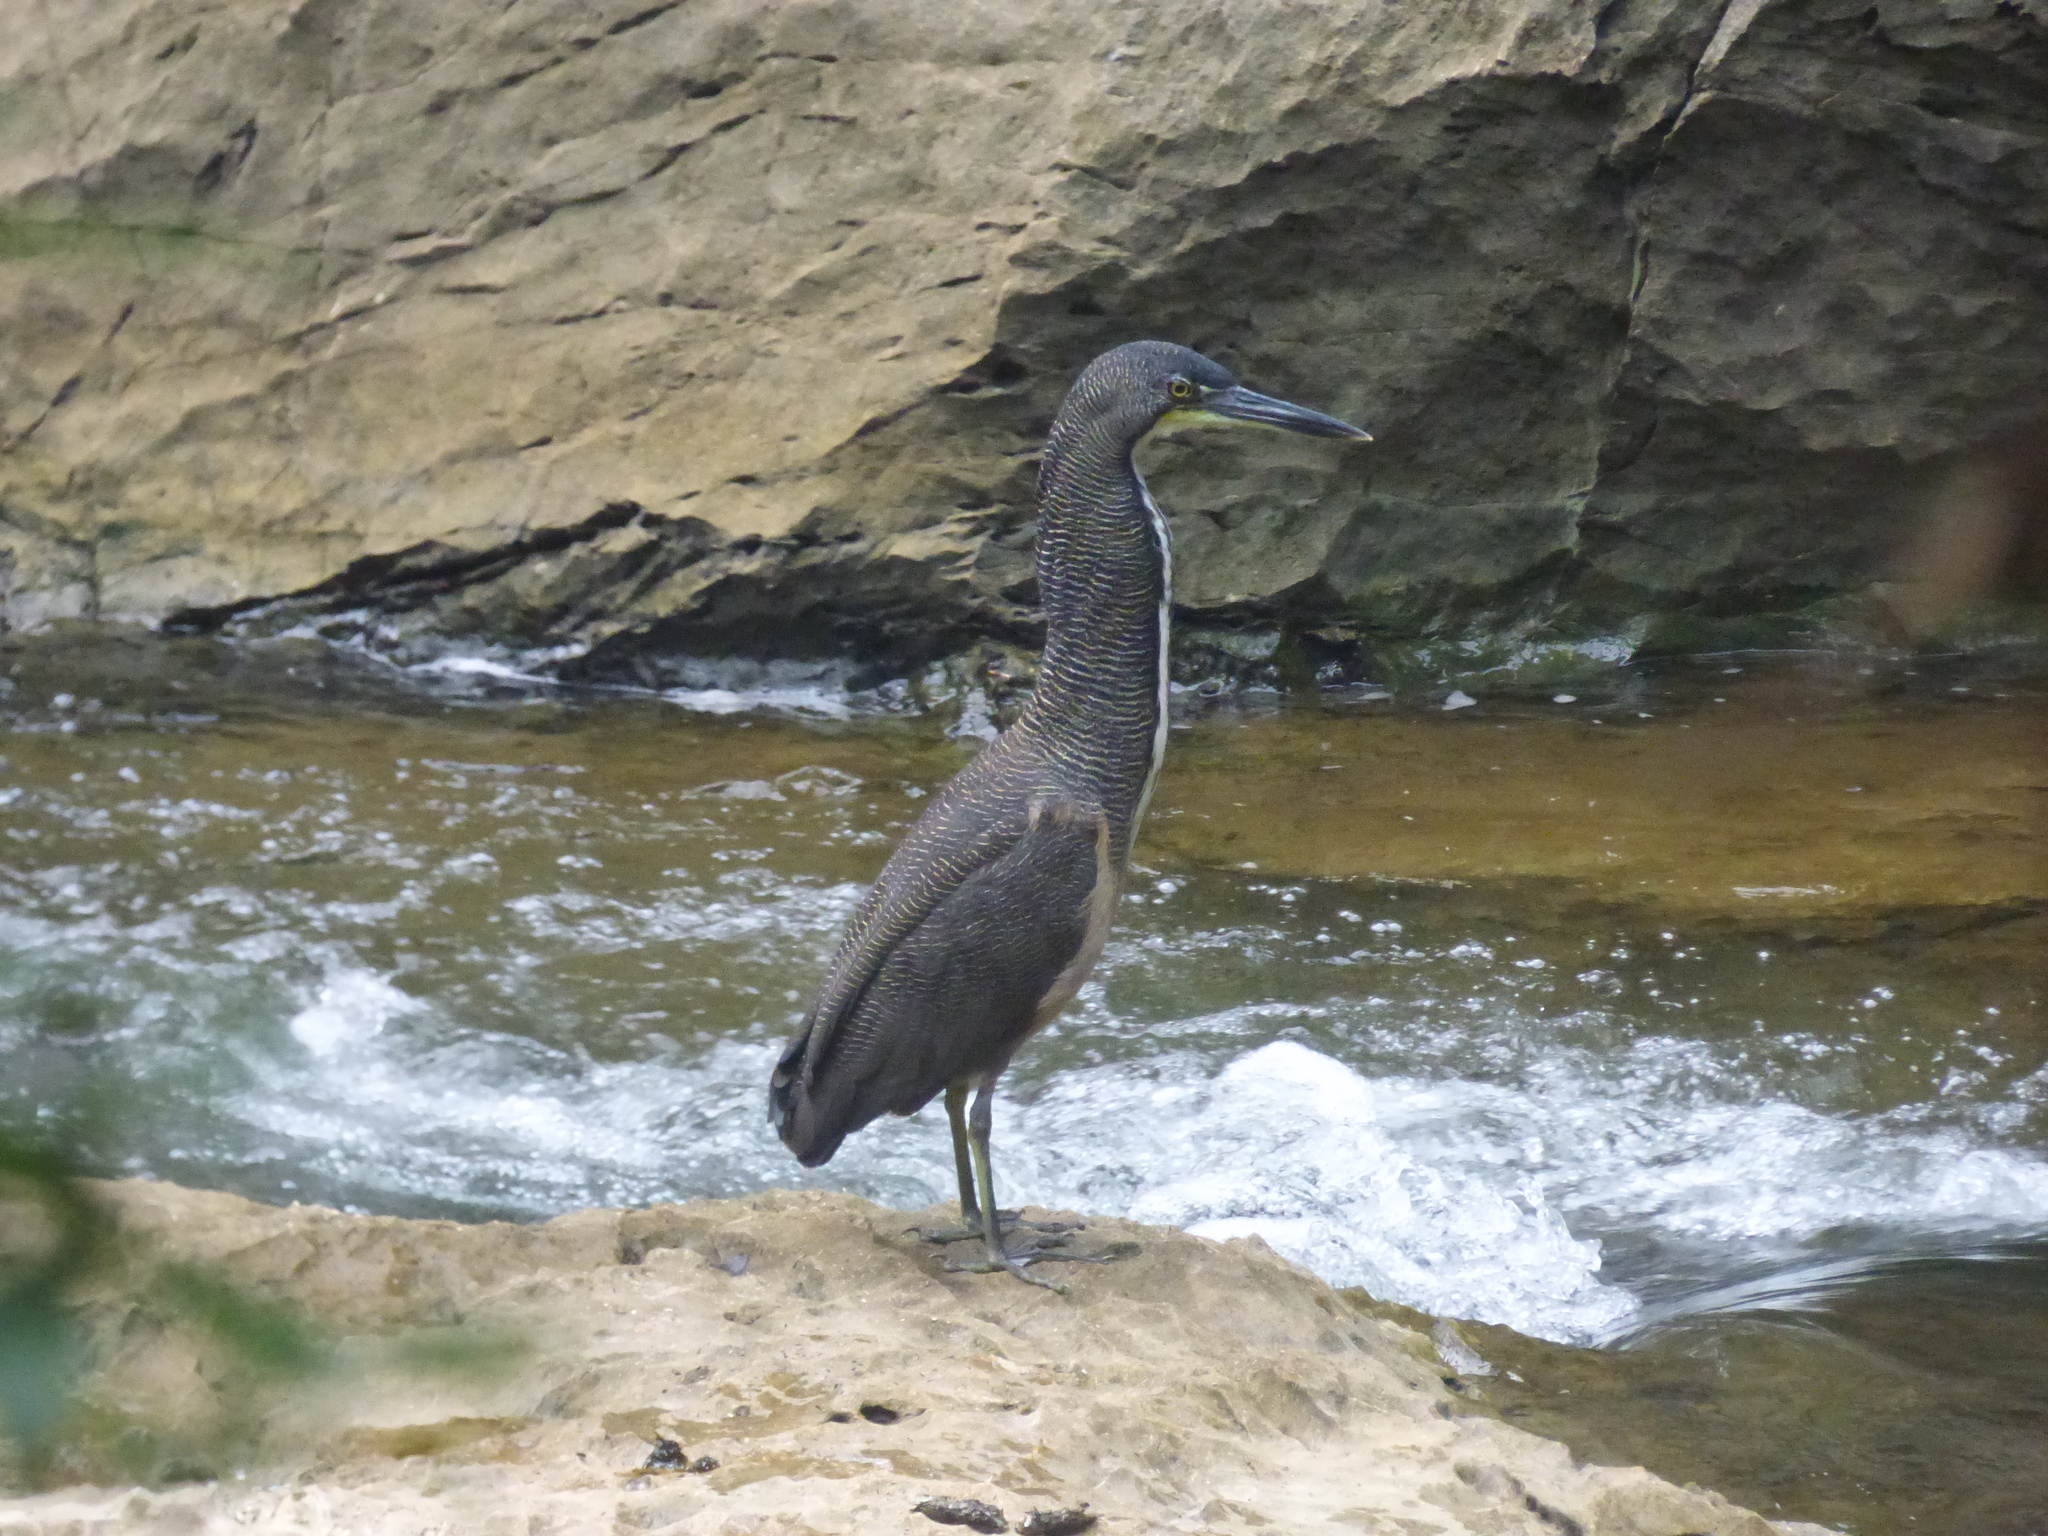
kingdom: Animalia
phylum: Chordata
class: Aves
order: Pelecaniformes
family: Ardeidae
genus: Tigrisoma
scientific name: Tigrisoma fasciatum
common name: Fasciated tiger-heron
